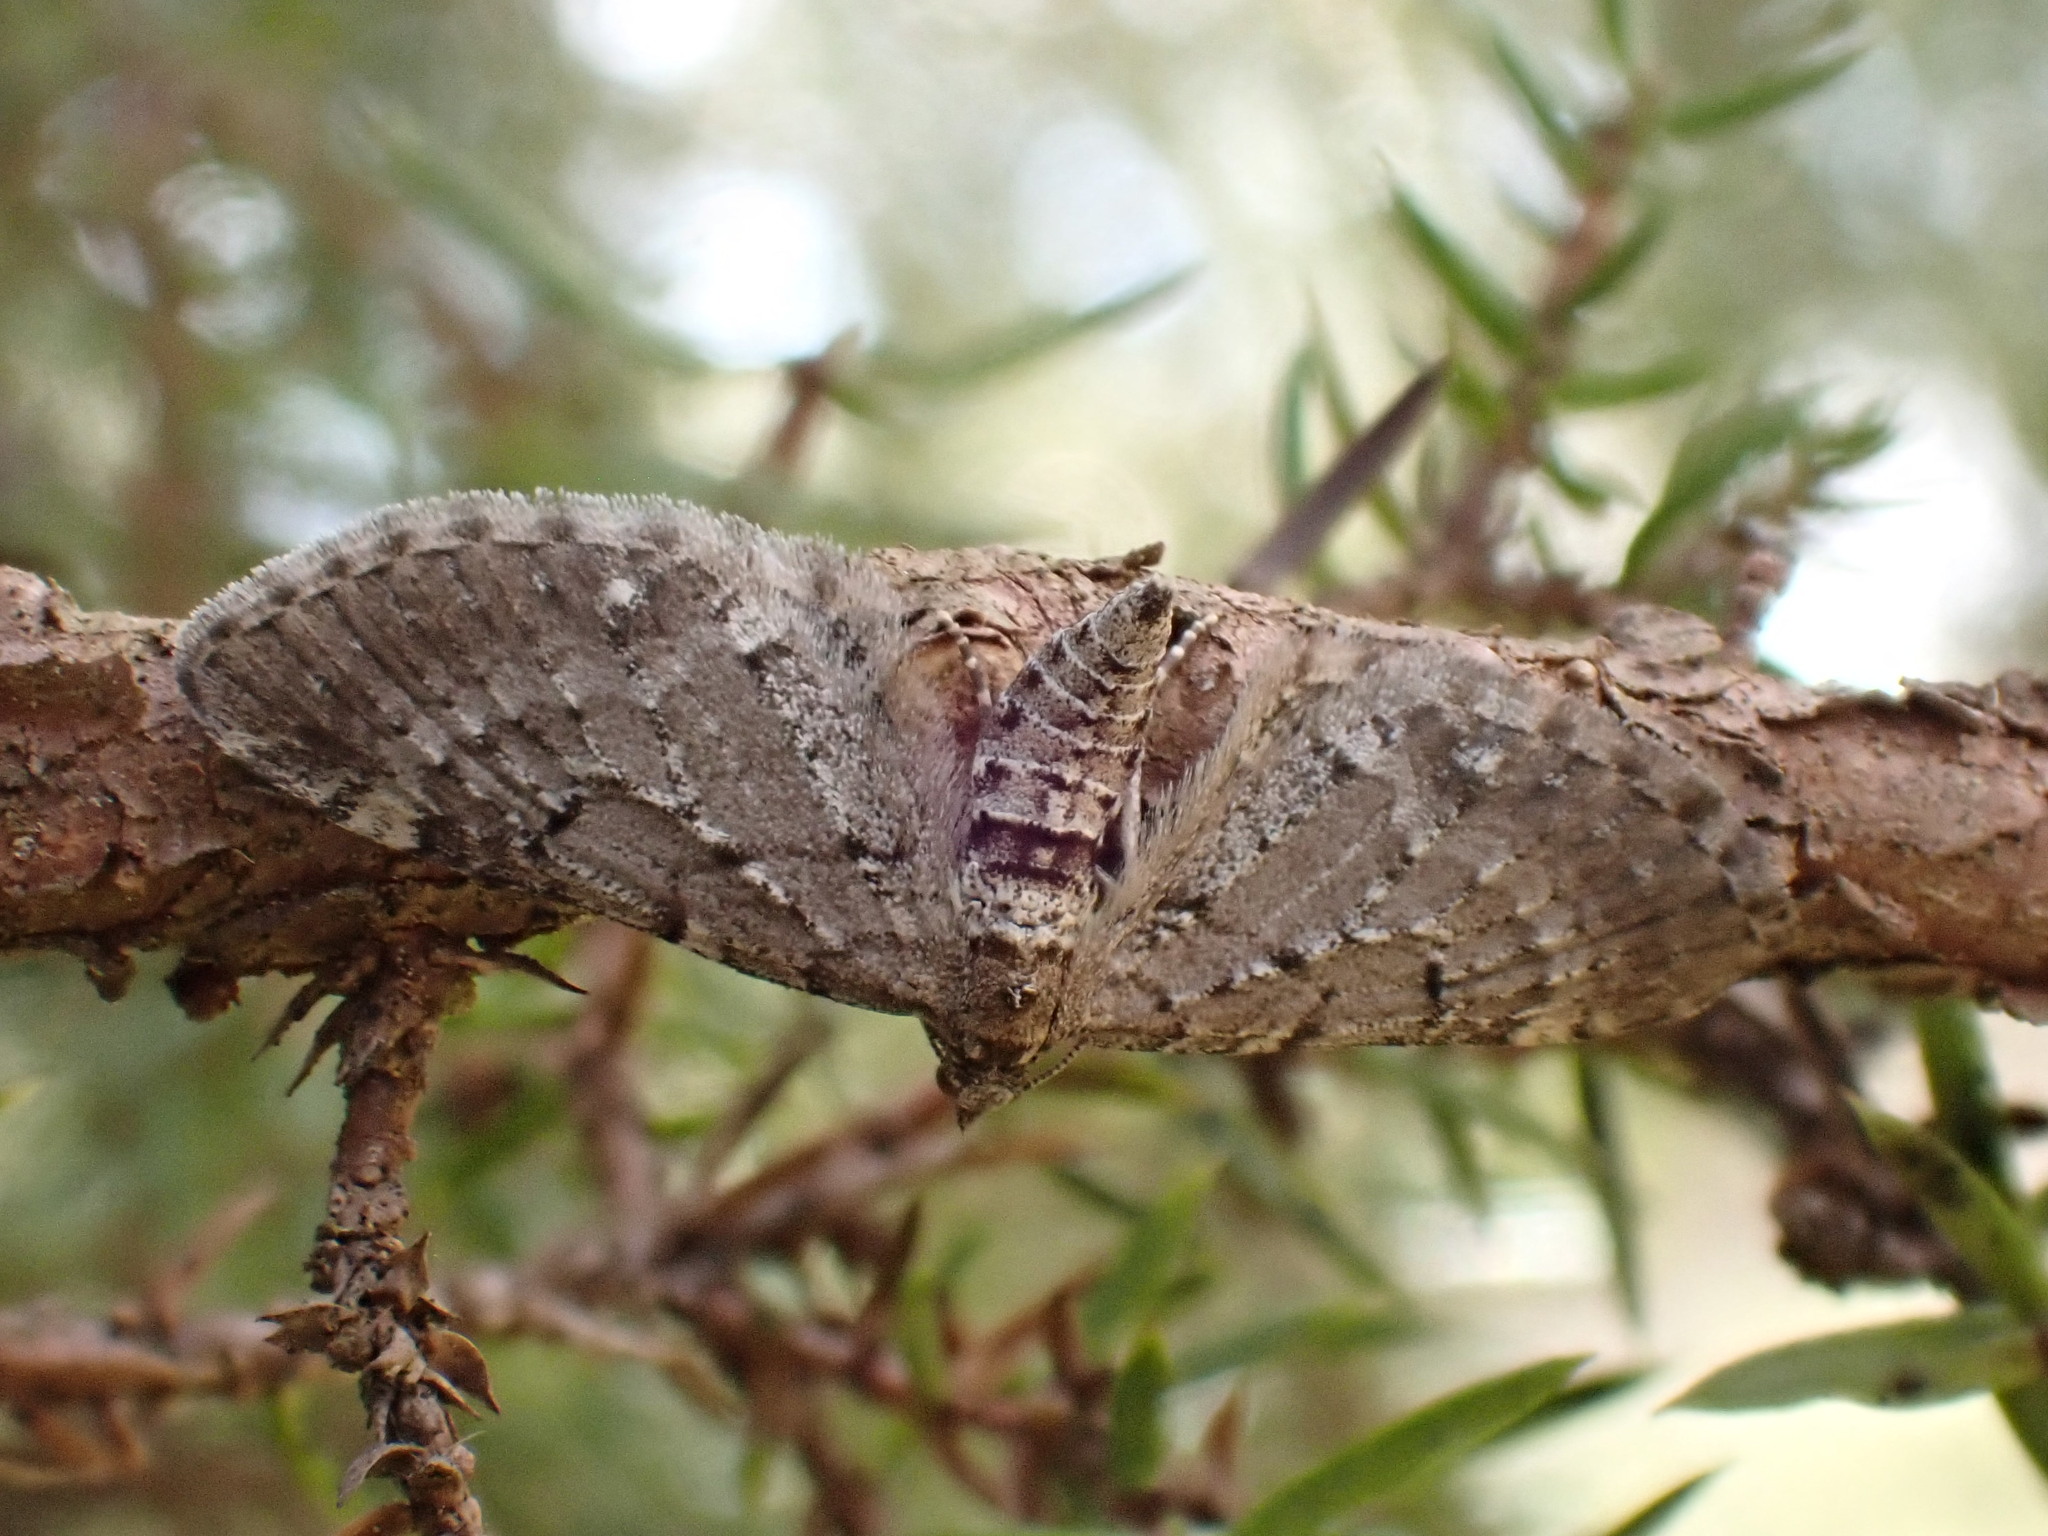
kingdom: Animalia
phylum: Arthropoda
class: Insecta
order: Lepidoptera
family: Geometridae
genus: Eupithecia
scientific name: Eupithecia intricata
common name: Freyers pug
